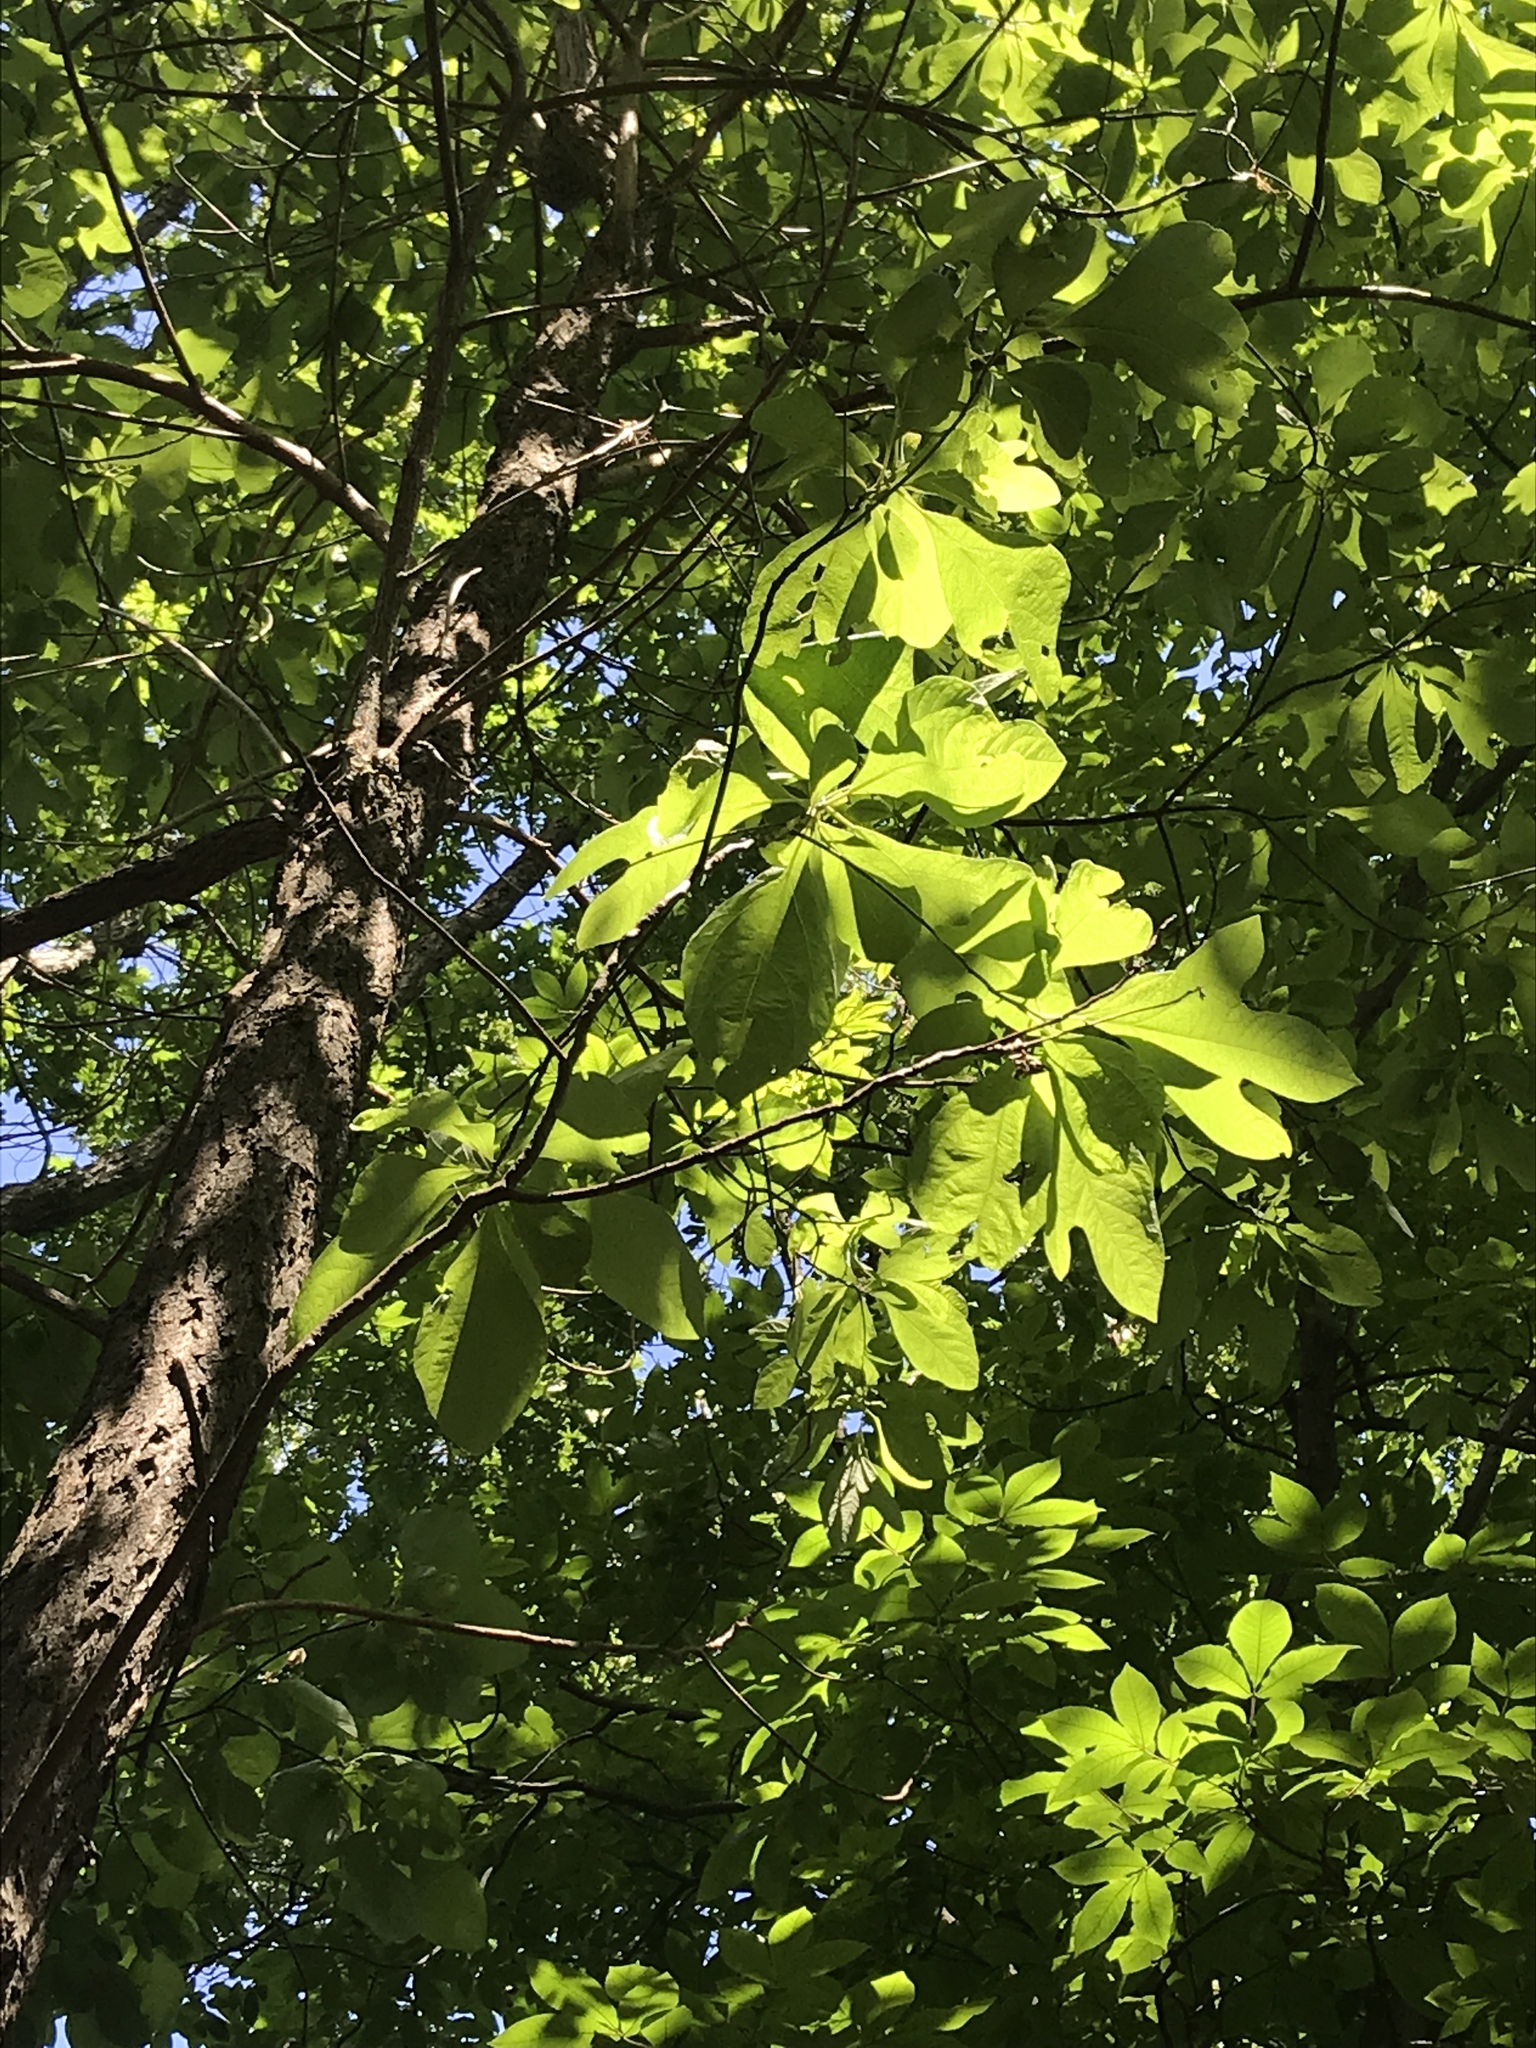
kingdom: Plantae
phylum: Tracheophyta
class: Magnoliopsida
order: Laurales
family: Lauraceae
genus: Sassafras
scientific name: Sassafras albidum
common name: Sassafras
